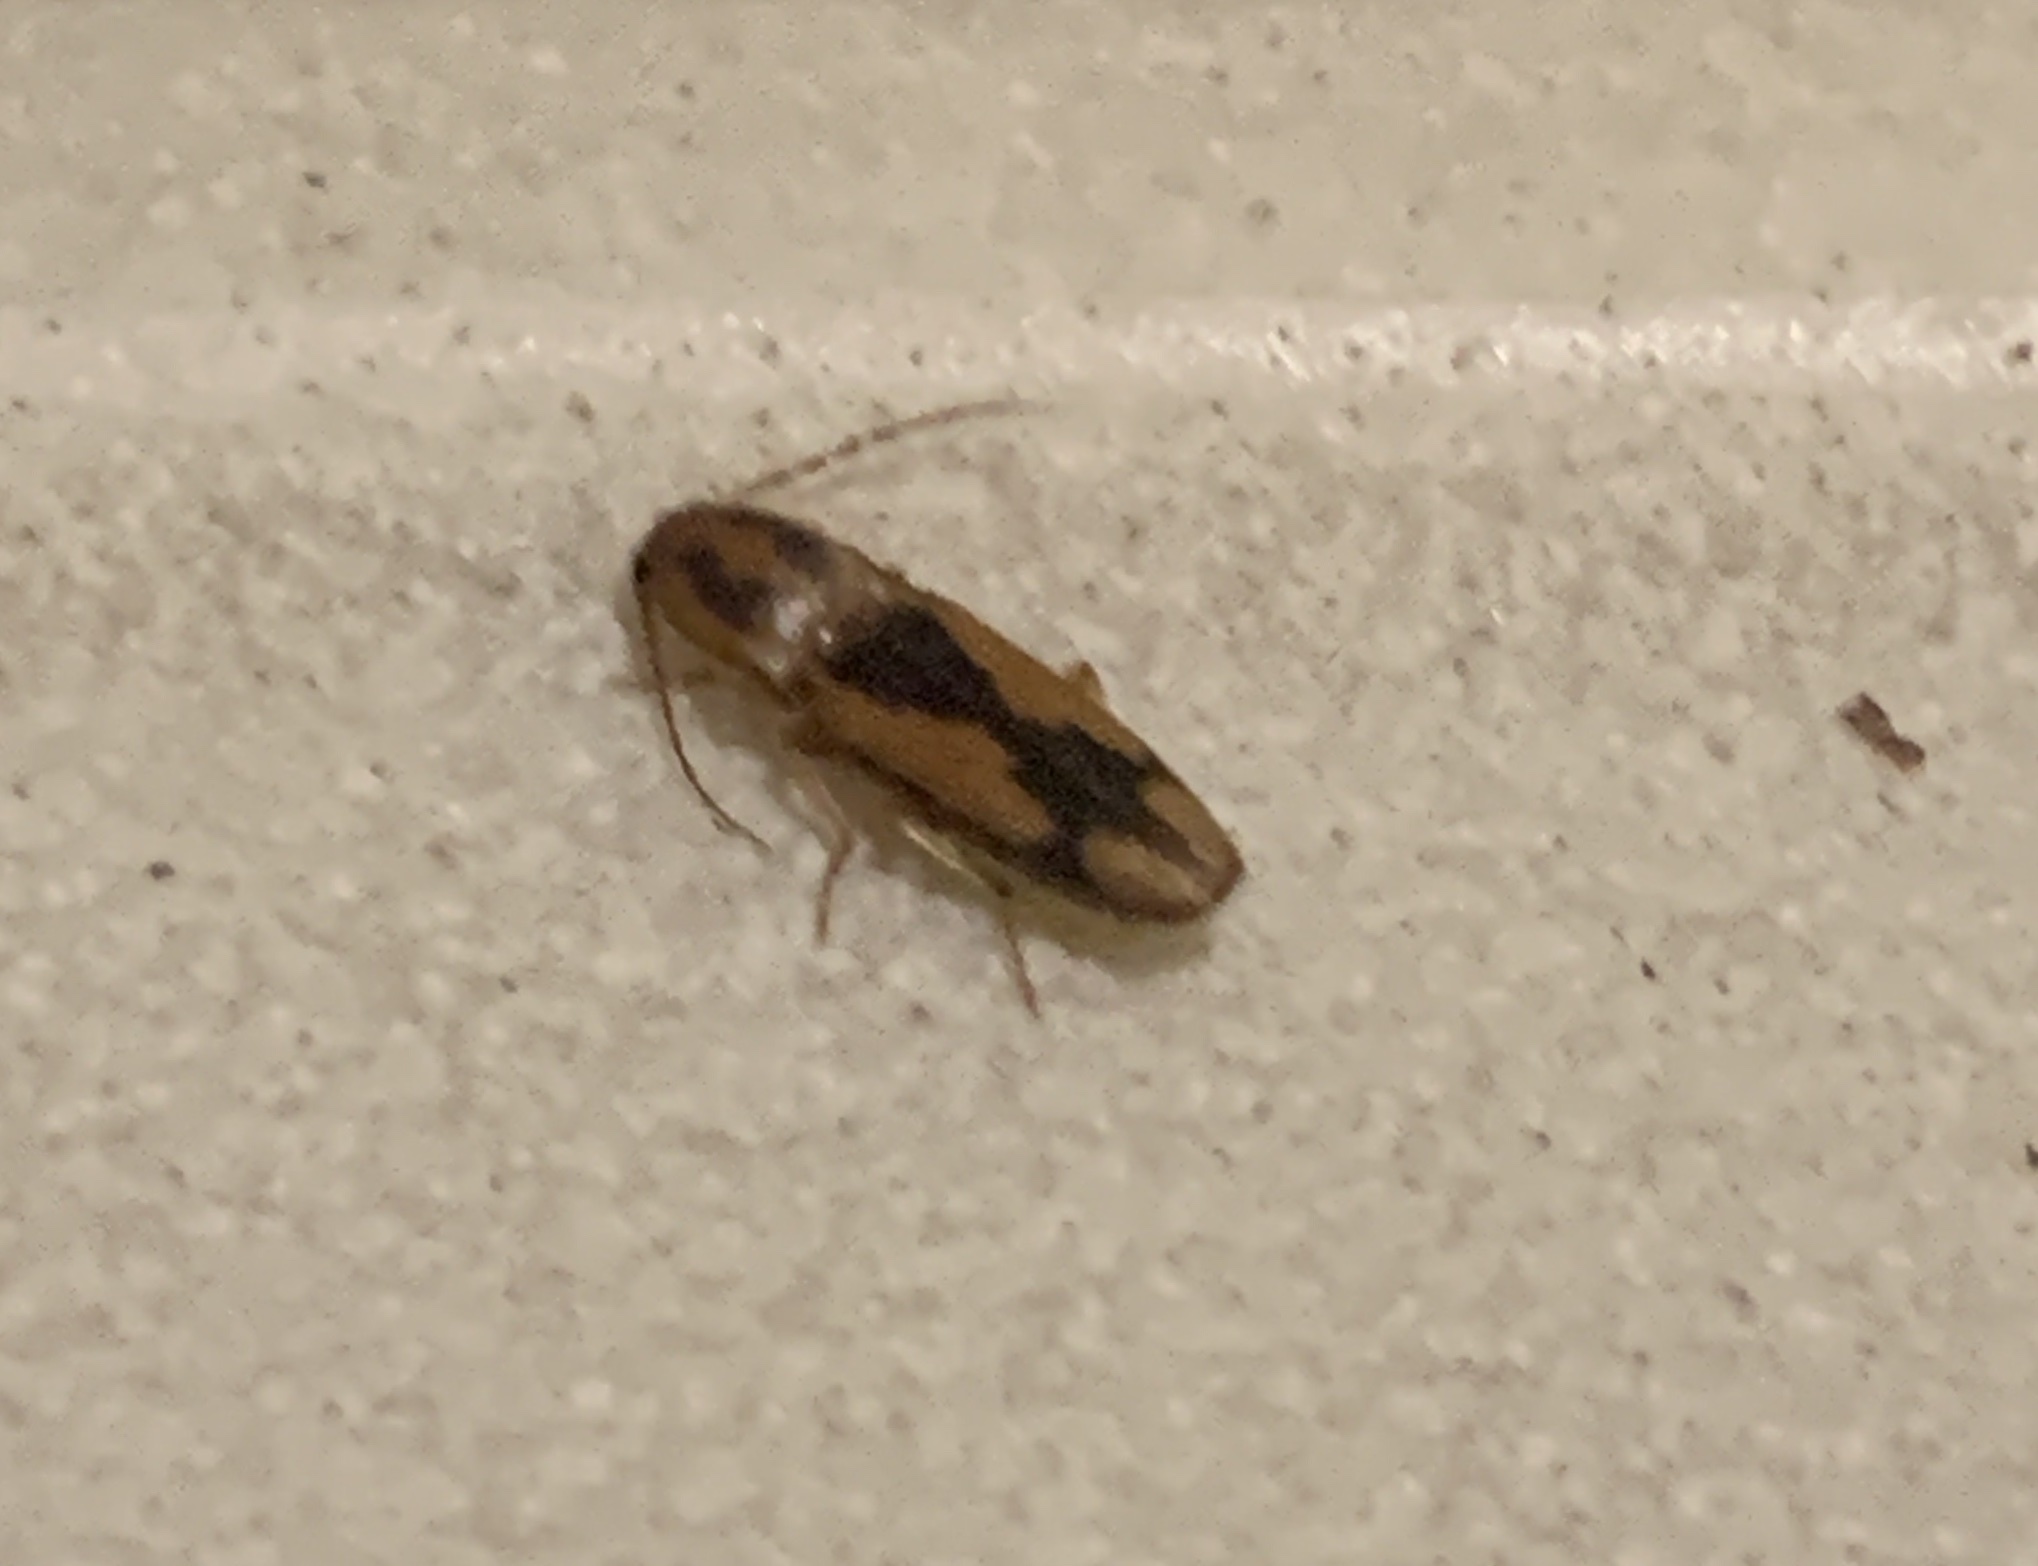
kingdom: Animalia
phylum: Arthropoda
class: Insecta
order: Coleoptera
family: Elateridae
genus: Monocrepidius
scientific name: Monocrepidius
